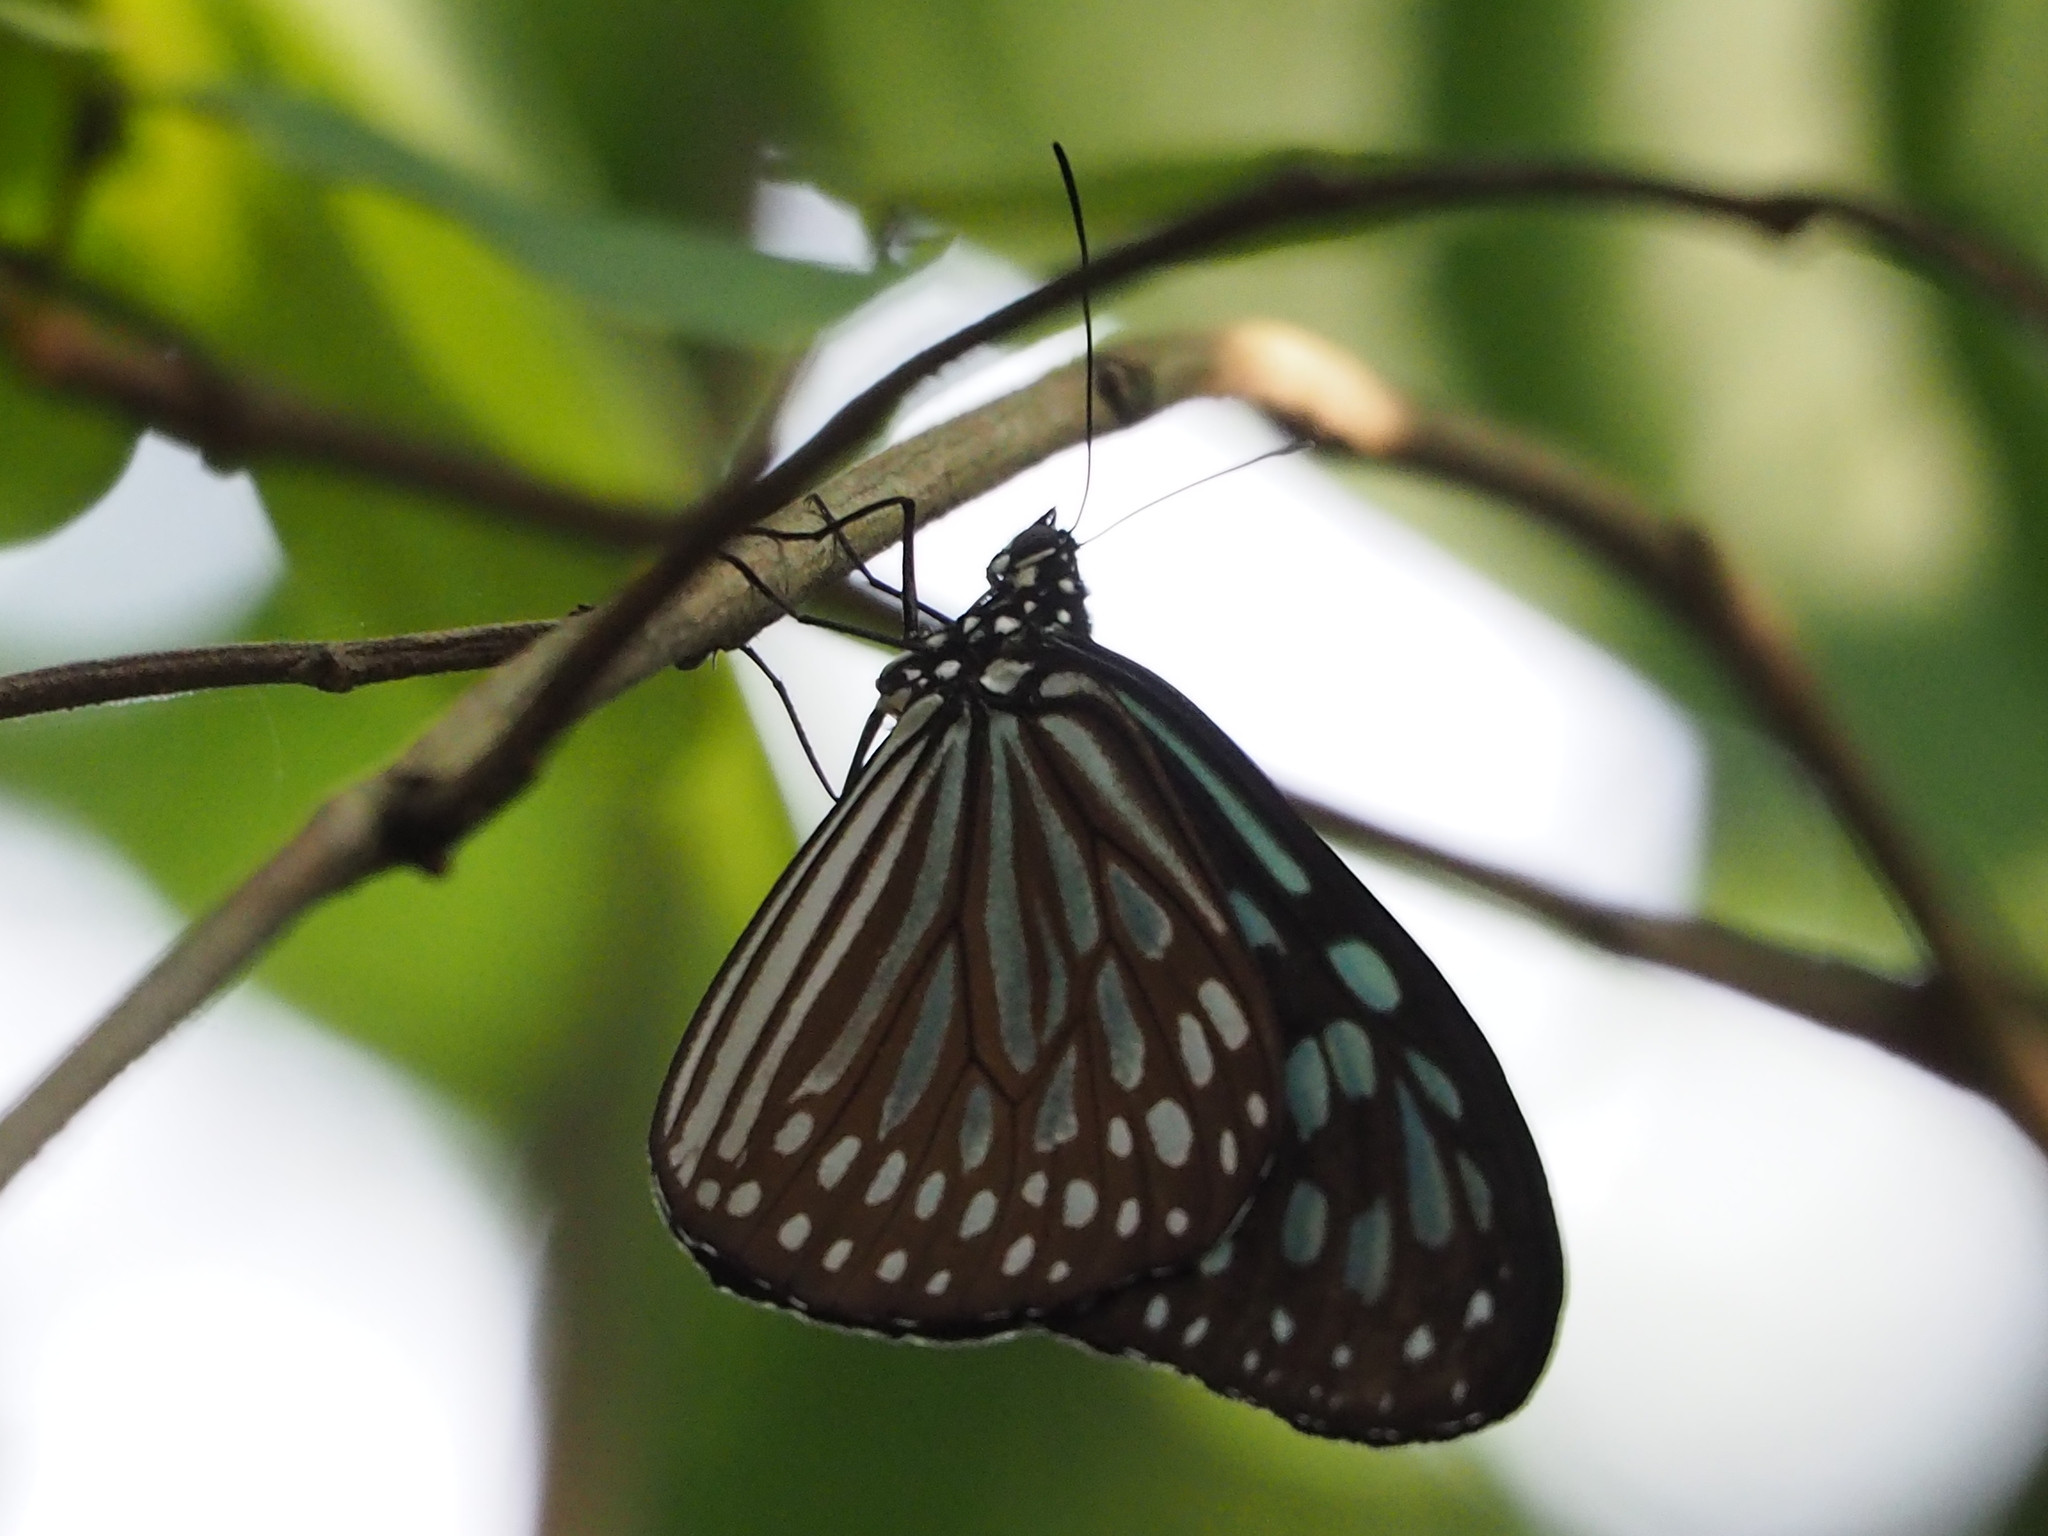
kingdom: Animalia
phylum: Arthropoda
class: Insecta
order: Lepidoptera
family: Nymphalidae
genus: Ideopsis
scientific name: Ideopsis similis
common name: Ceylon blue glassy tiger
